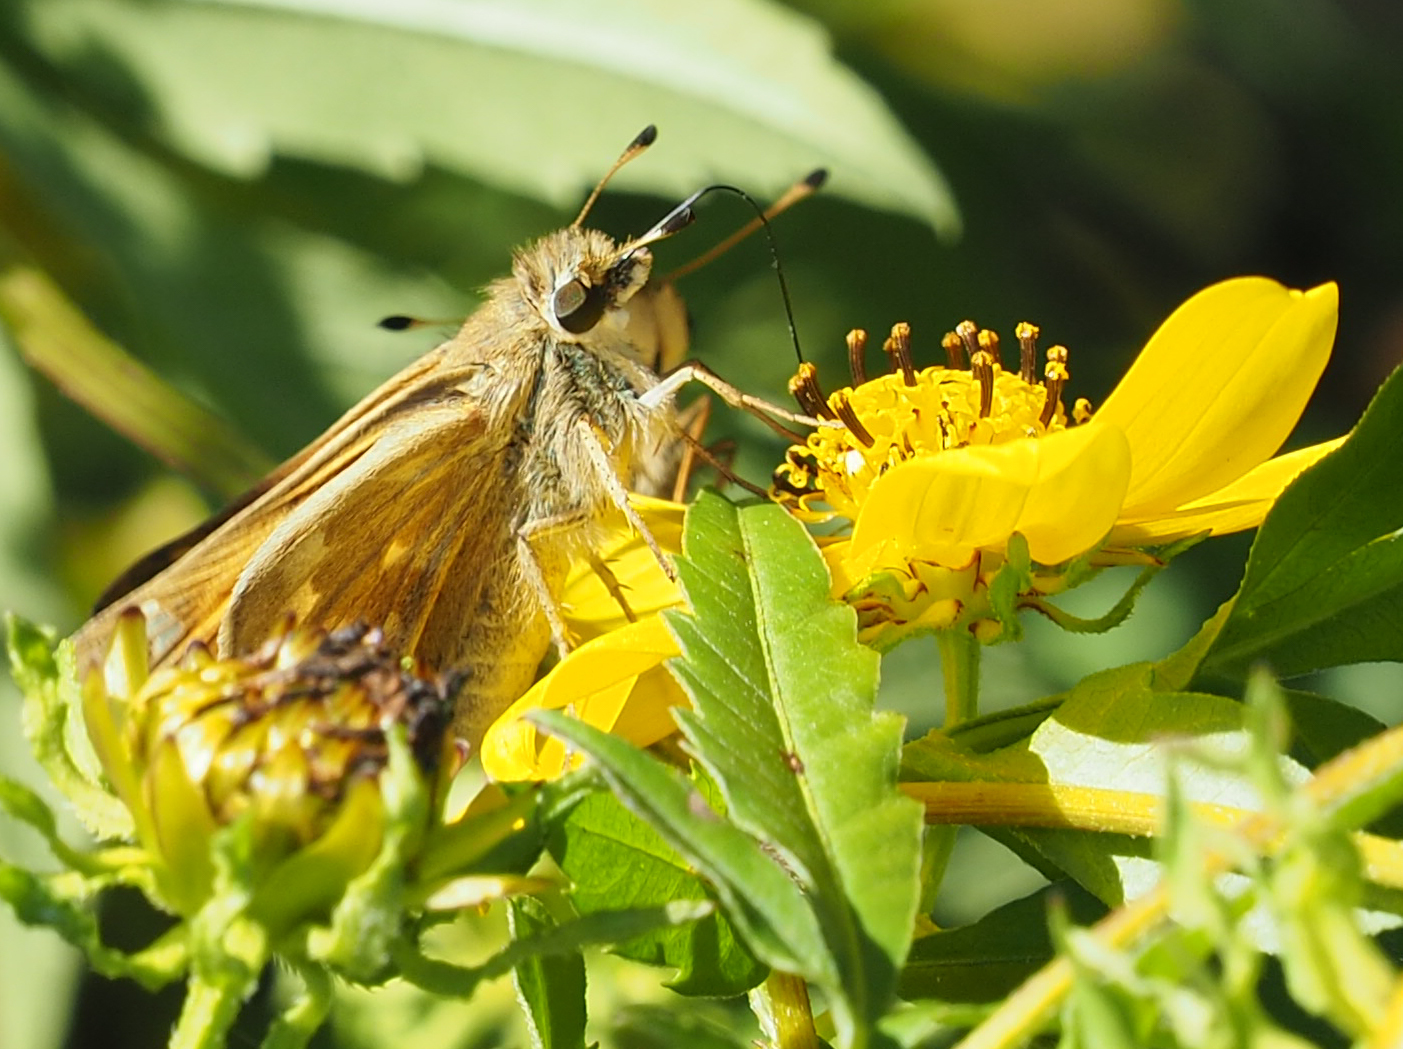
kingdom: Animalia
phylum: Arthropoda
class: Insecta
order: Lepidoptera
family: Hesperiidae
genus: Atalopedes
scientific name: Atalopedes
